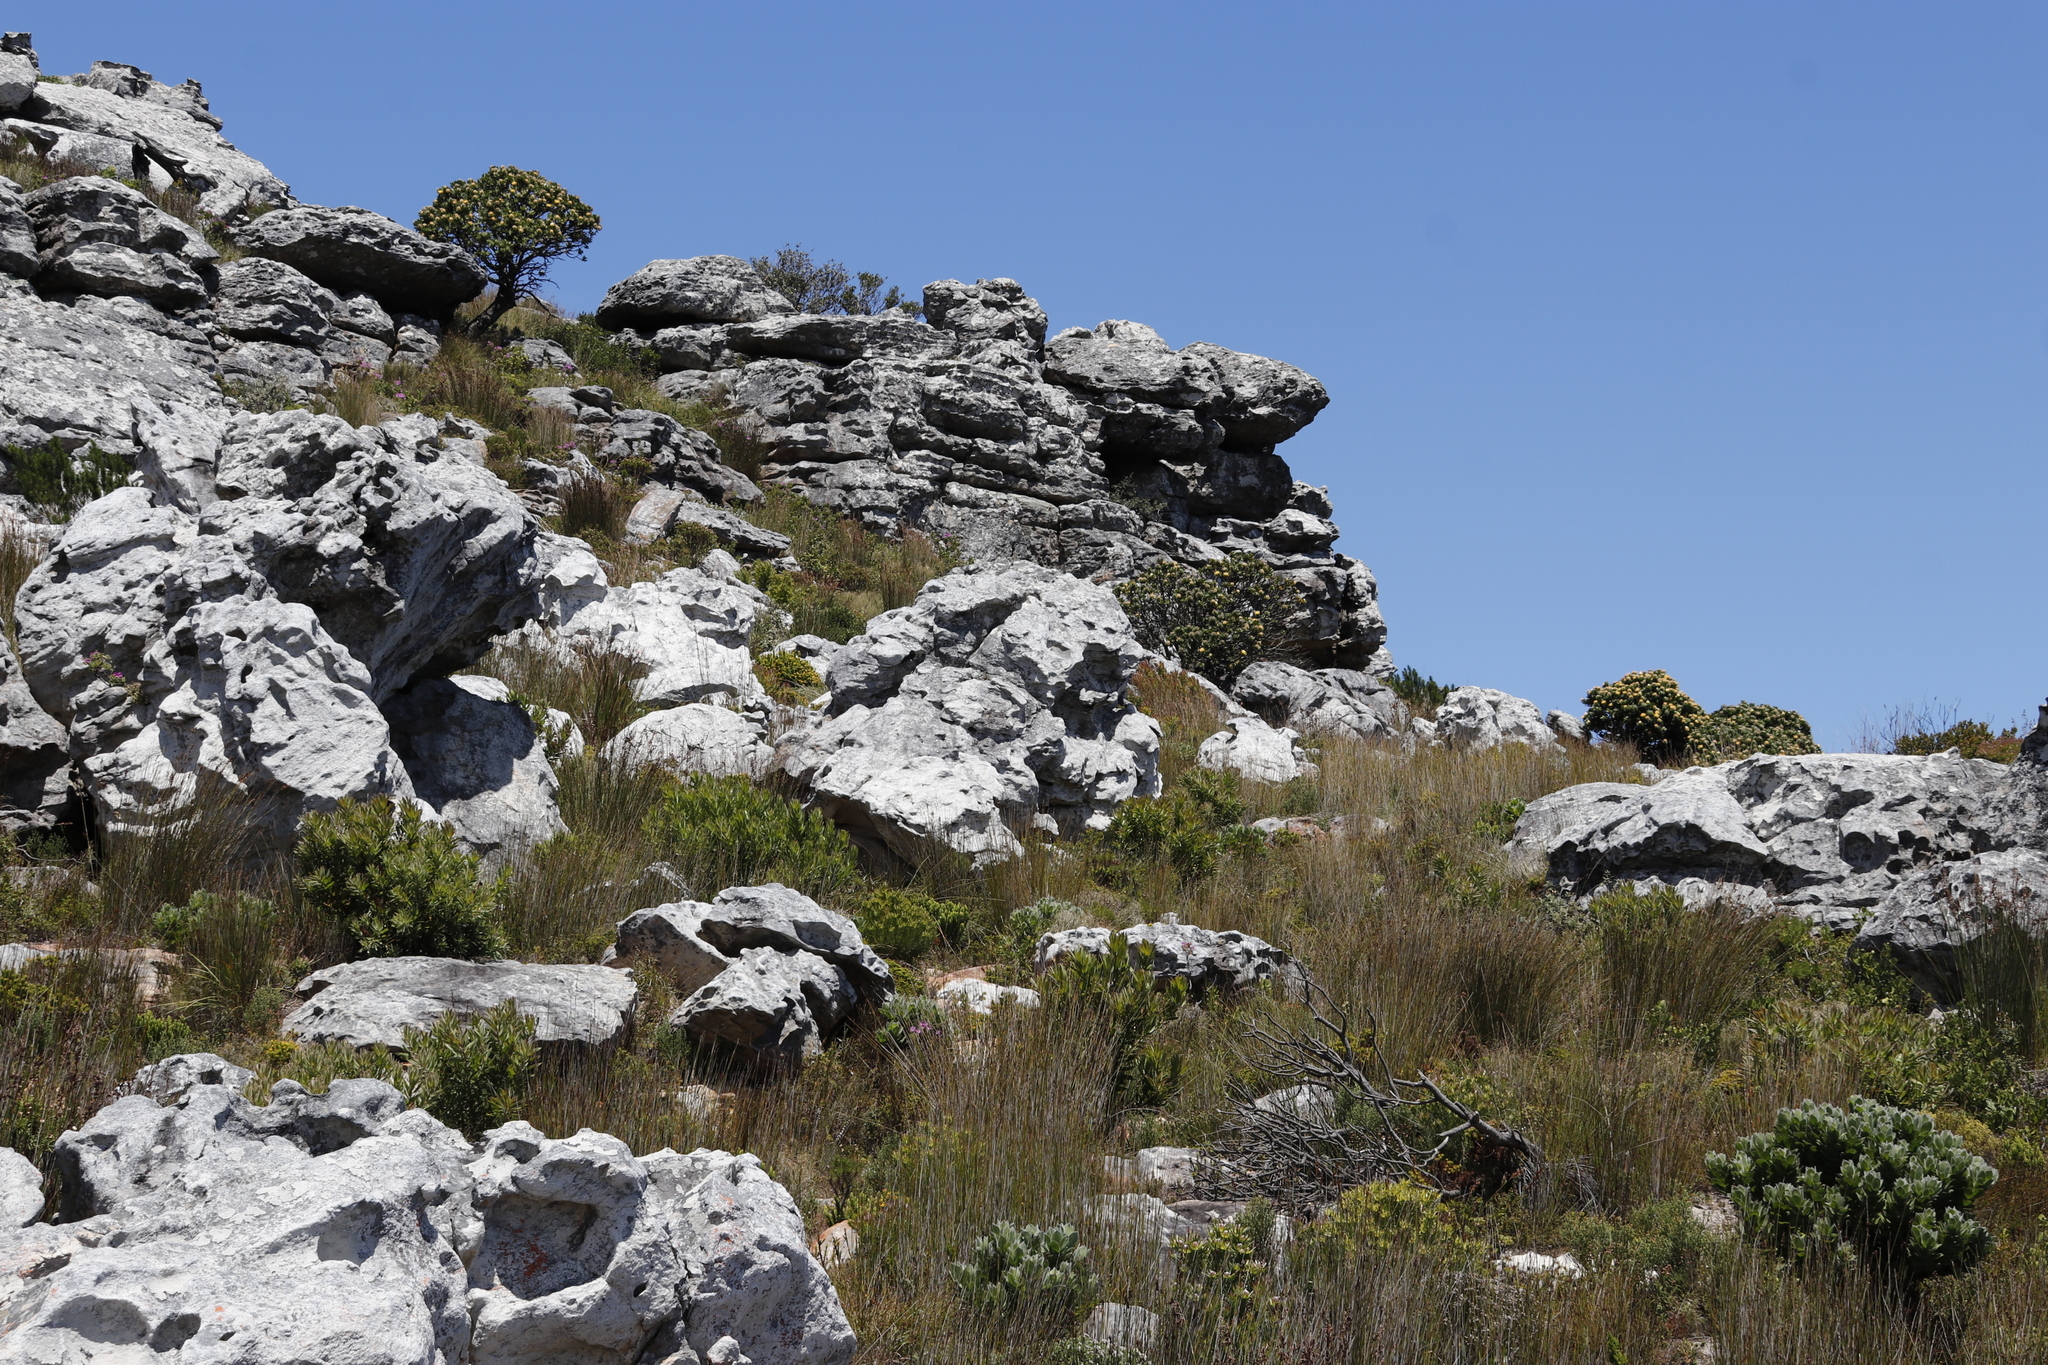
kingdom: Plantae
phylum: Tracheophyta
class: Magnoliopsida
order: Proteales
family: Proteaceae
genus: Leucospermum
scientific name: Leucospermum conocarpodendron
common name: Tree pincushion
